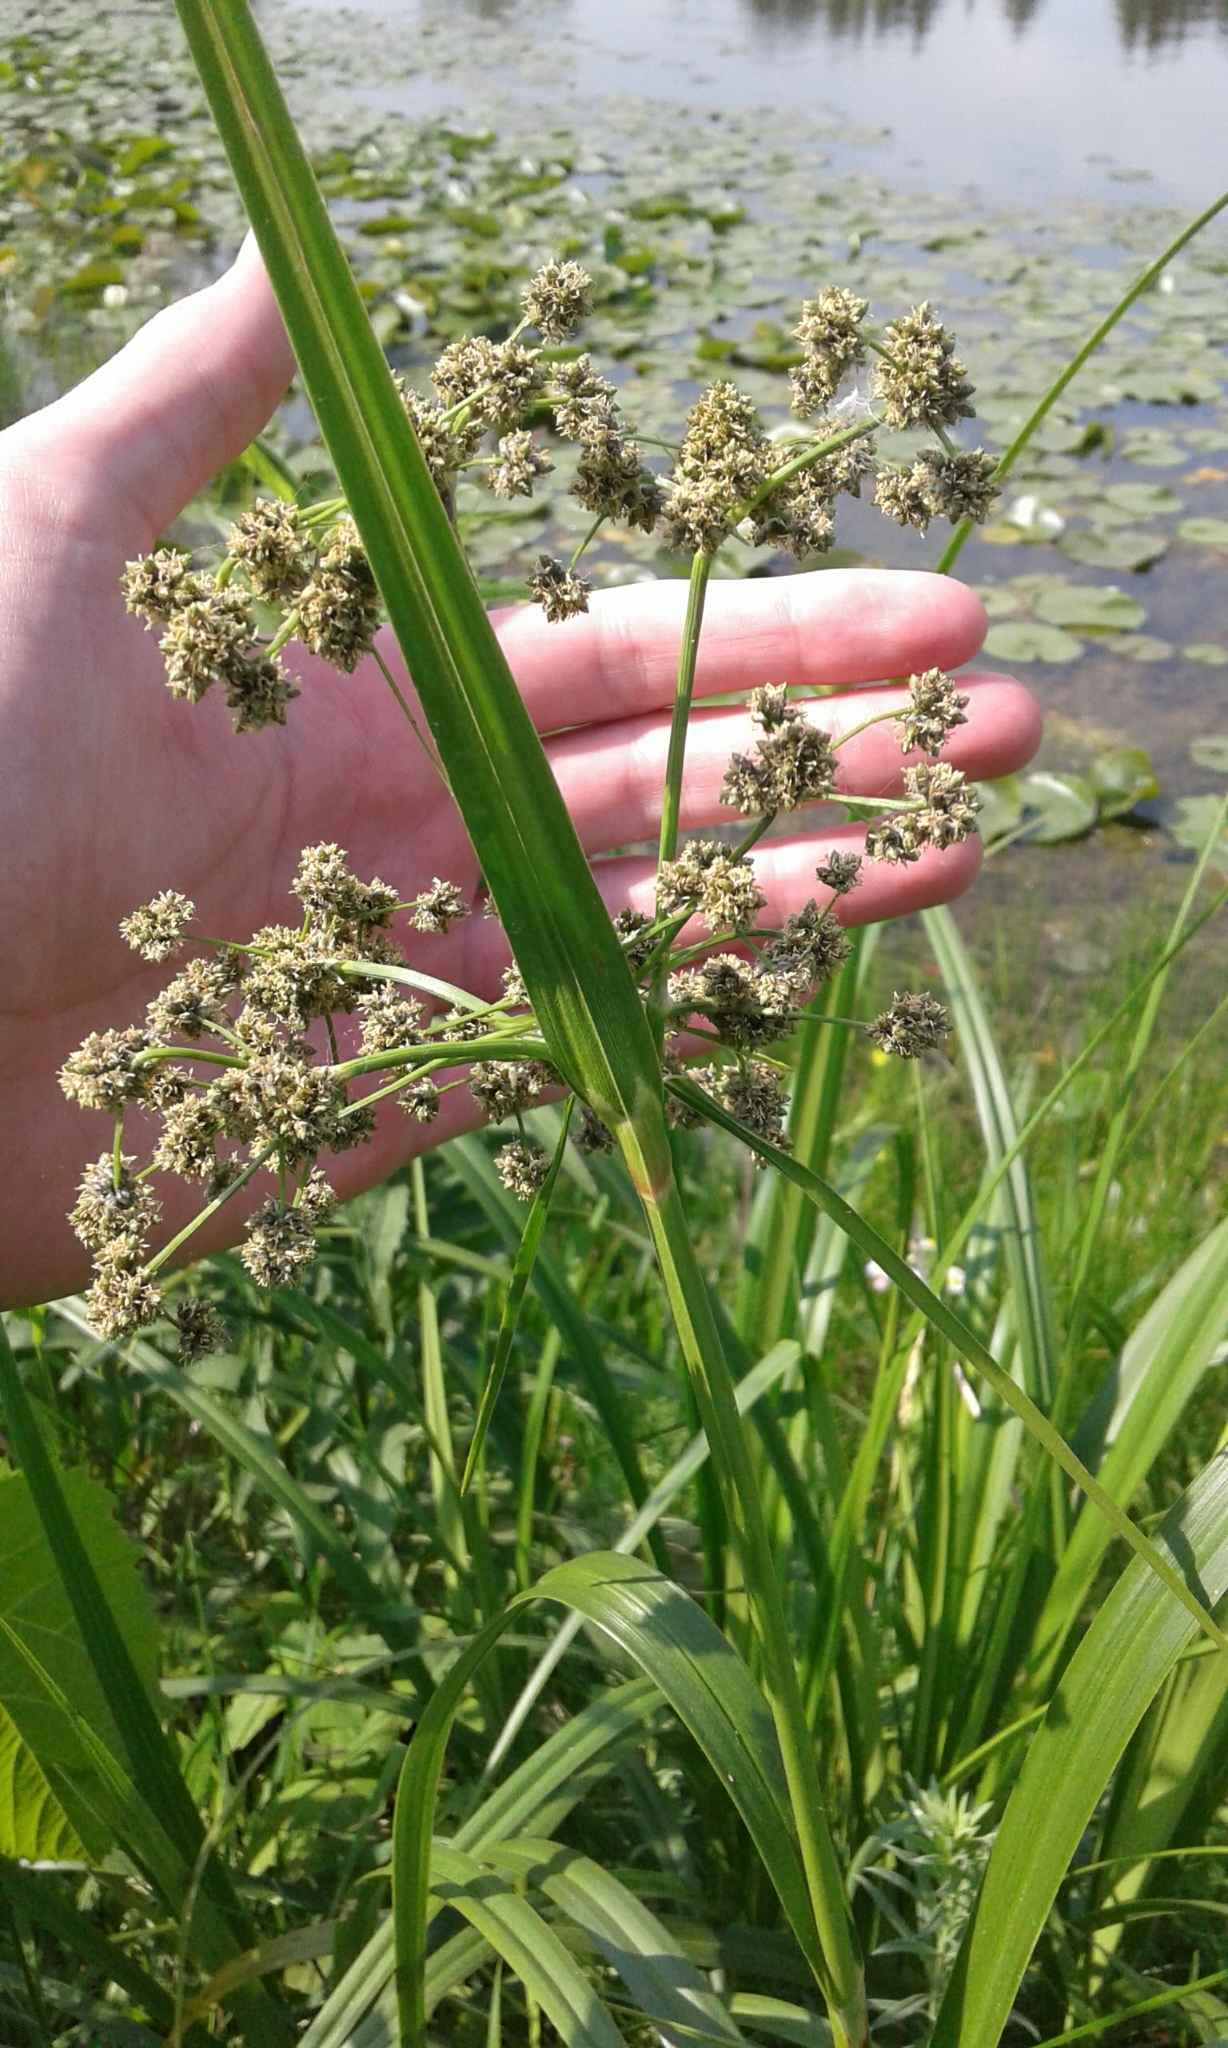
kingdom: Plantae
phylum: Tracheophyta
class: Liliopsida
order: Poales
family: Cyperaceae
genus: Scirpus
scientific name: Scirpus microcarpus
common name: Panicled bulrush
